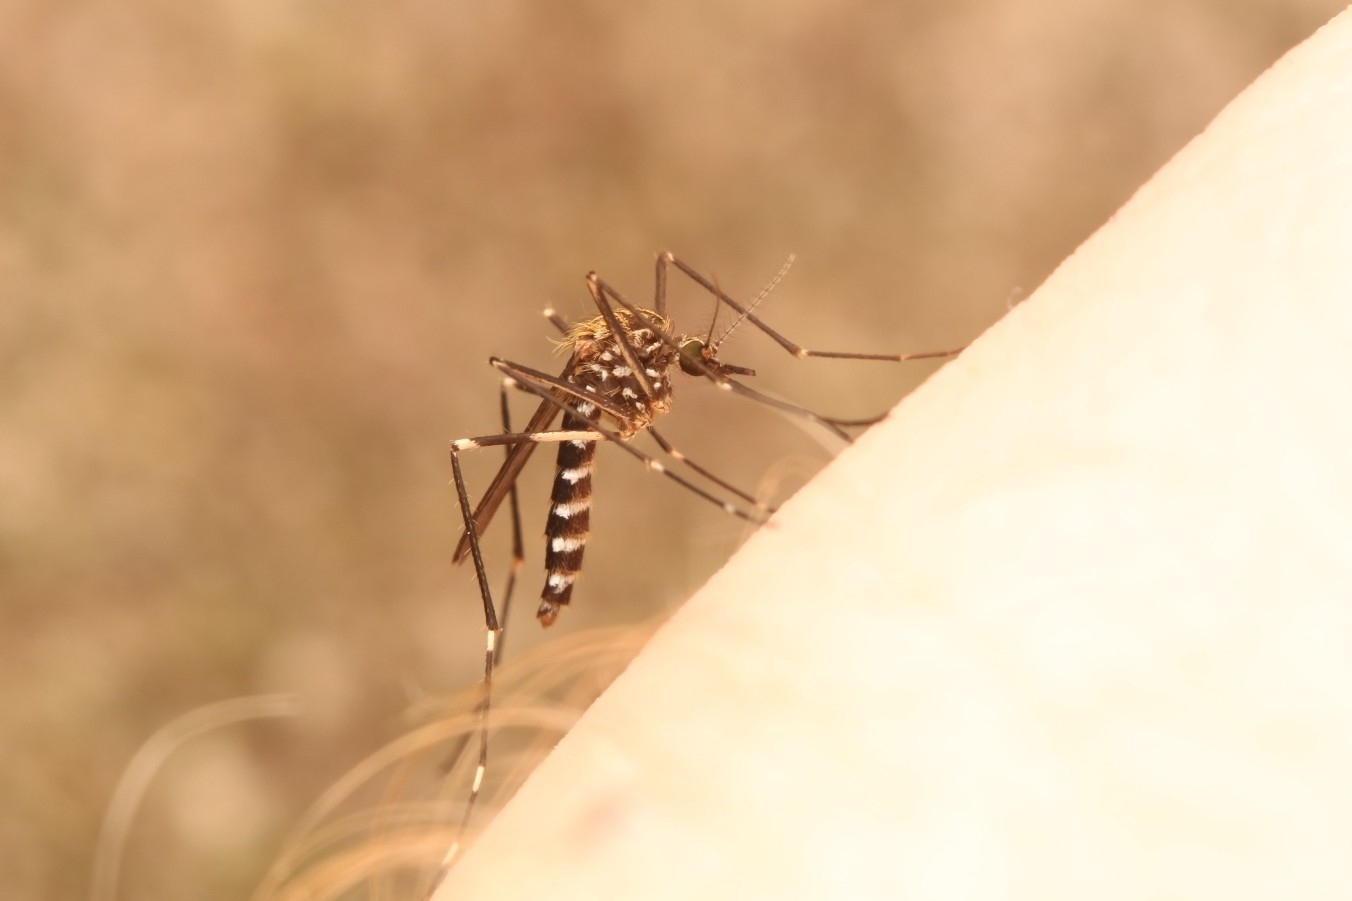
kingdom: Animalia
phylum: Arthropoda
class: Insecta
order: Diptera
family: Culicidae
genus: Aedes
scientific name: Aedes japonicus
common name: Asian bush mosquito
